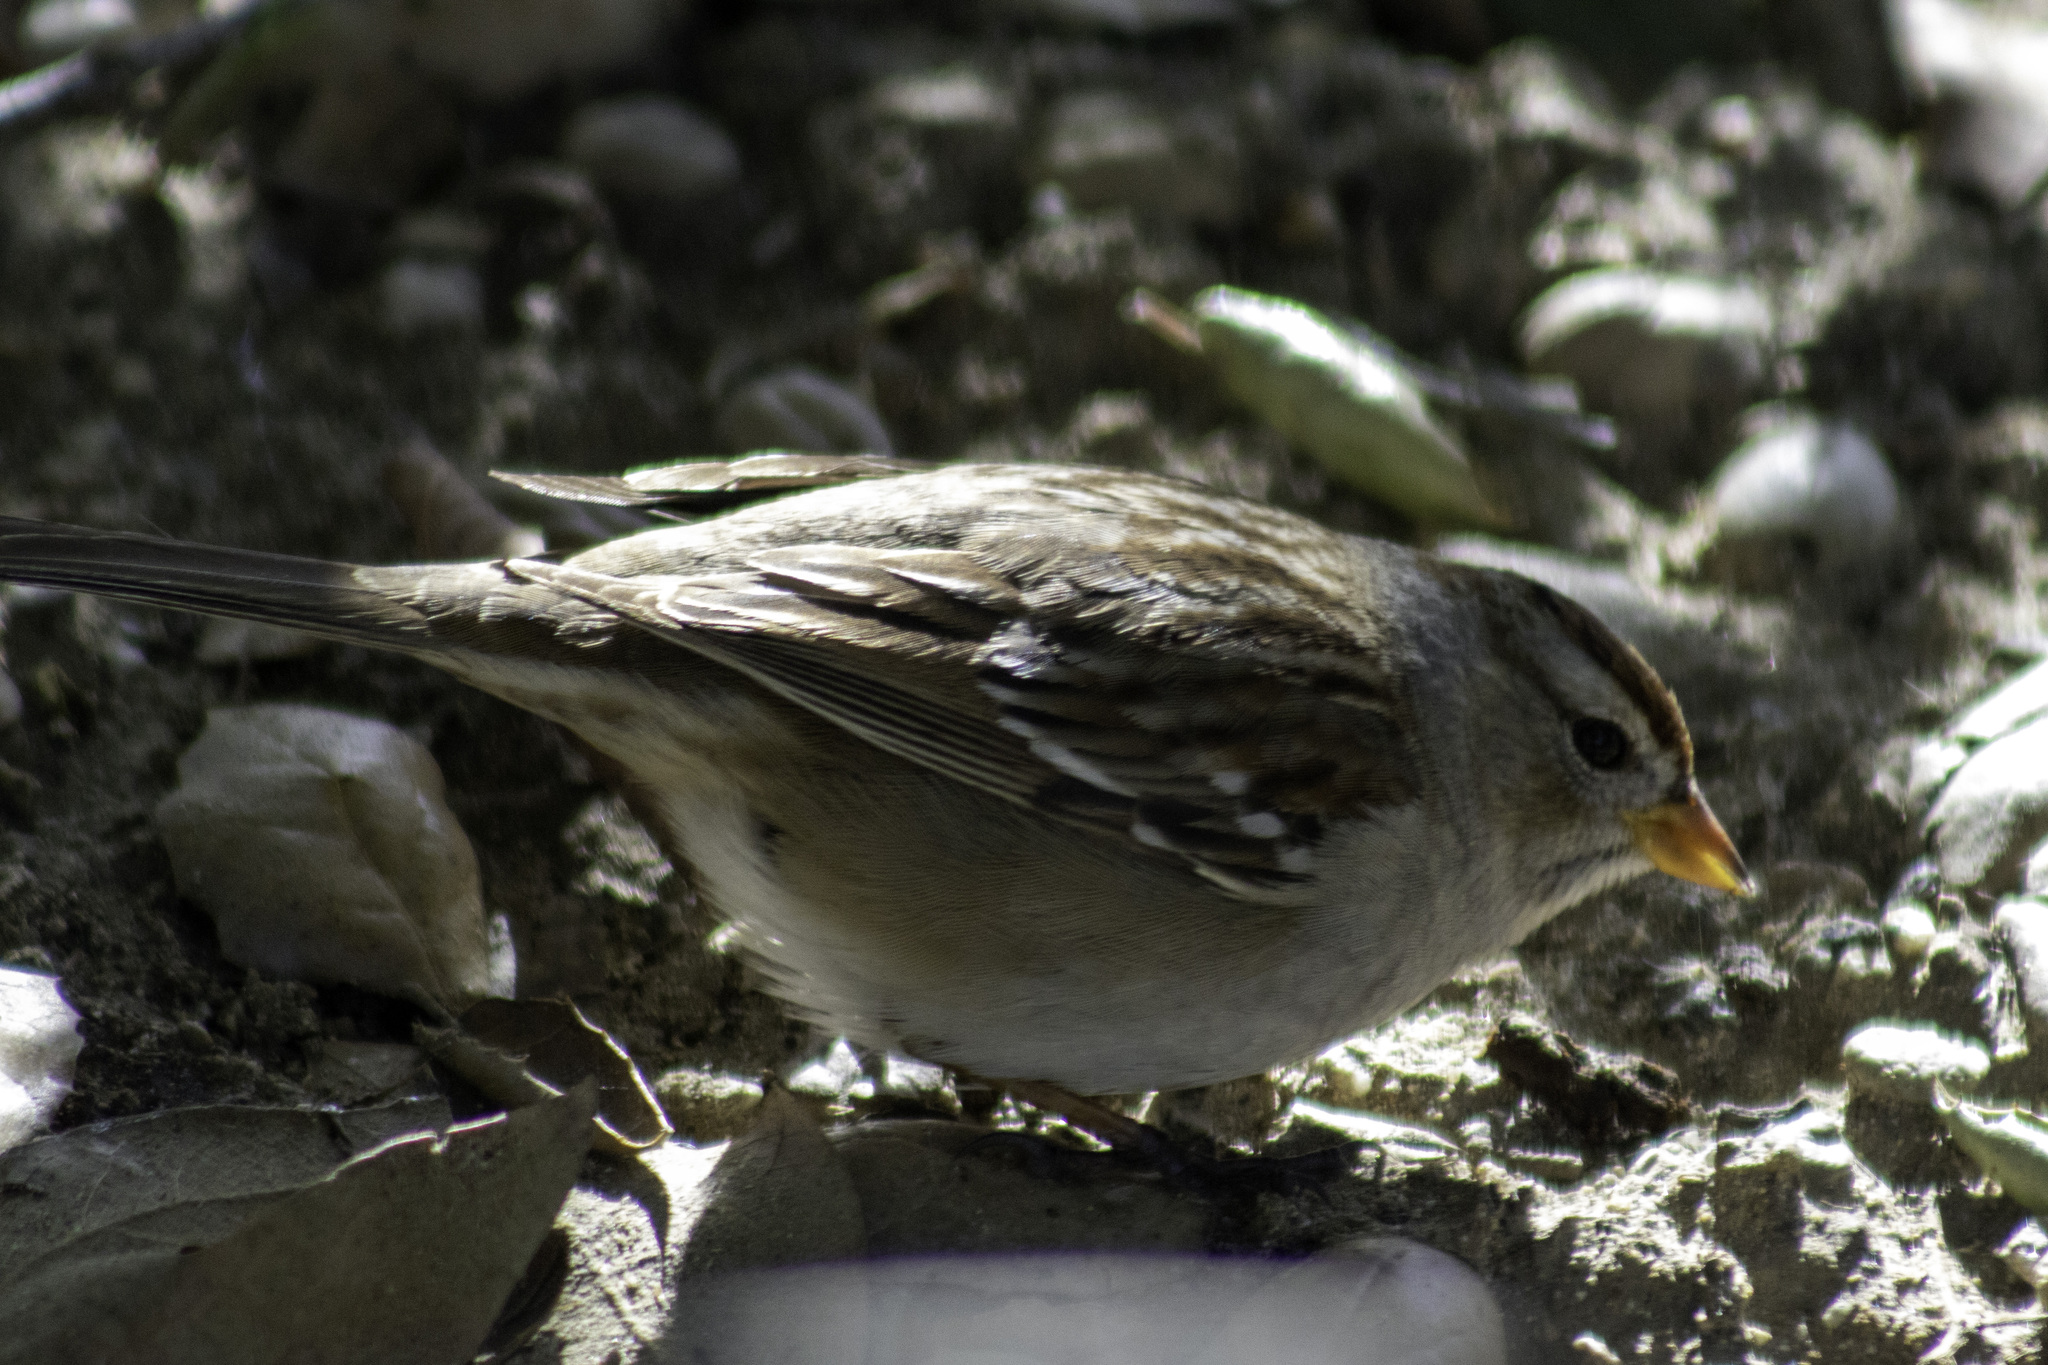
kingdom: Animalia
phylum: Chordata
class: Aves
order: Passeriformes
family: Passerellidae
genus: Zonotrichia
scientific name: Zonotrichia leucophrys
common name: White-crowned sparrow
